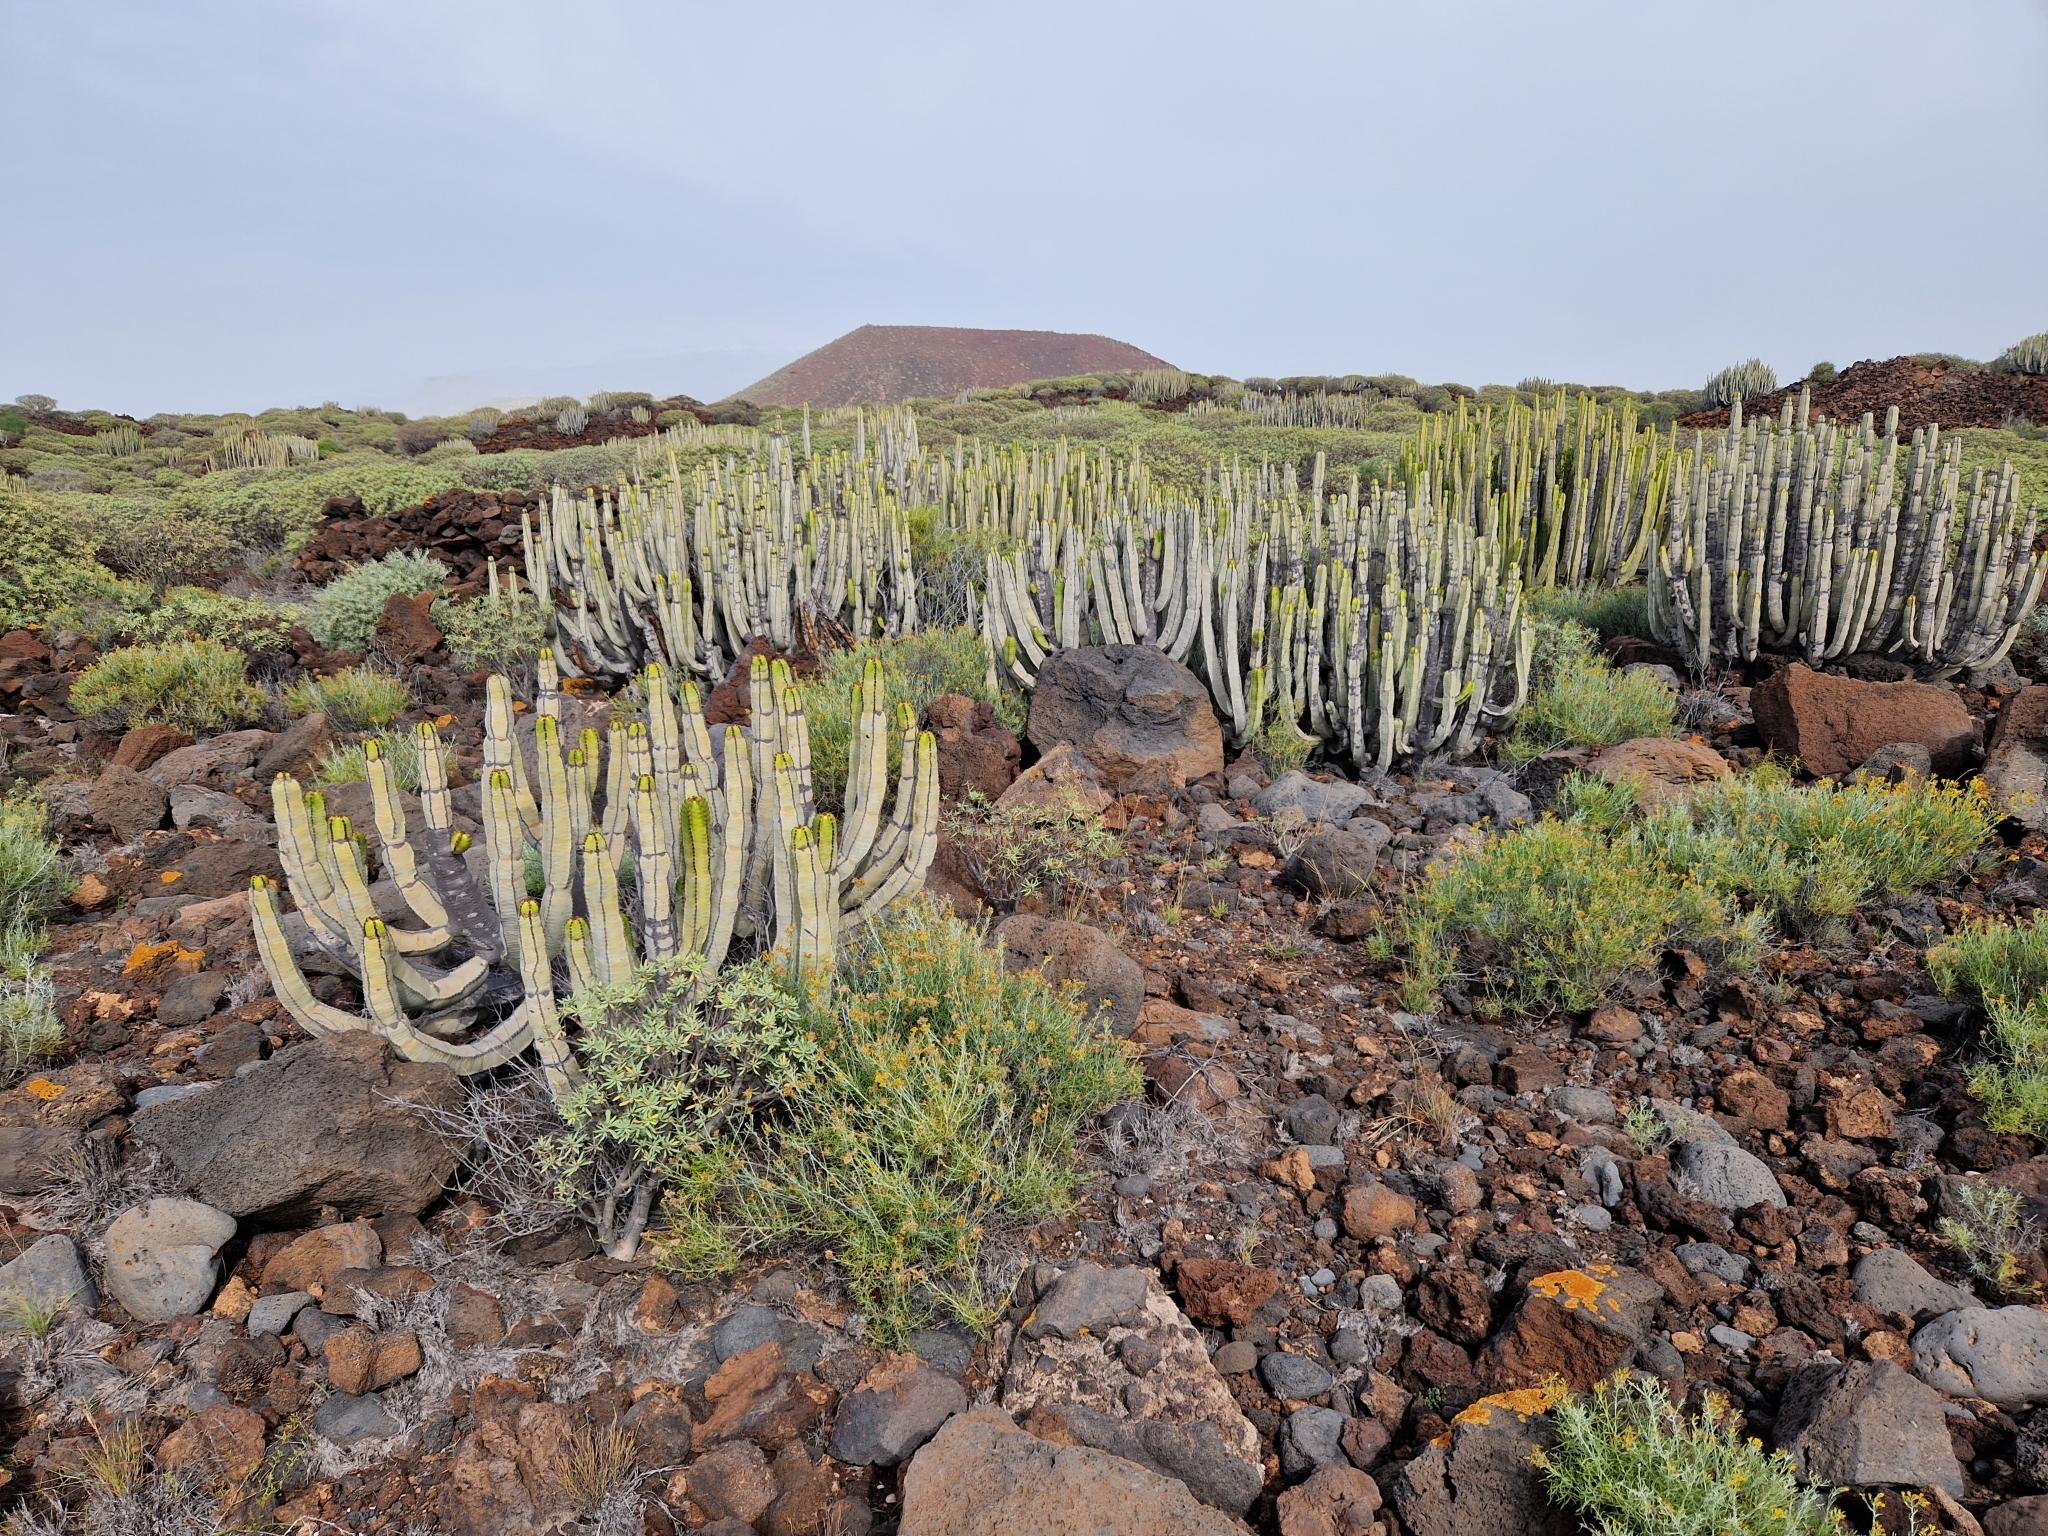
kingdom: Plantae
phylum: Tracheophyta
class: Magnoliopsida
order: Malpighiales
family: Euphorbiaceae
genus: Euphorbia
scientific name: Euphorbia canariensis
